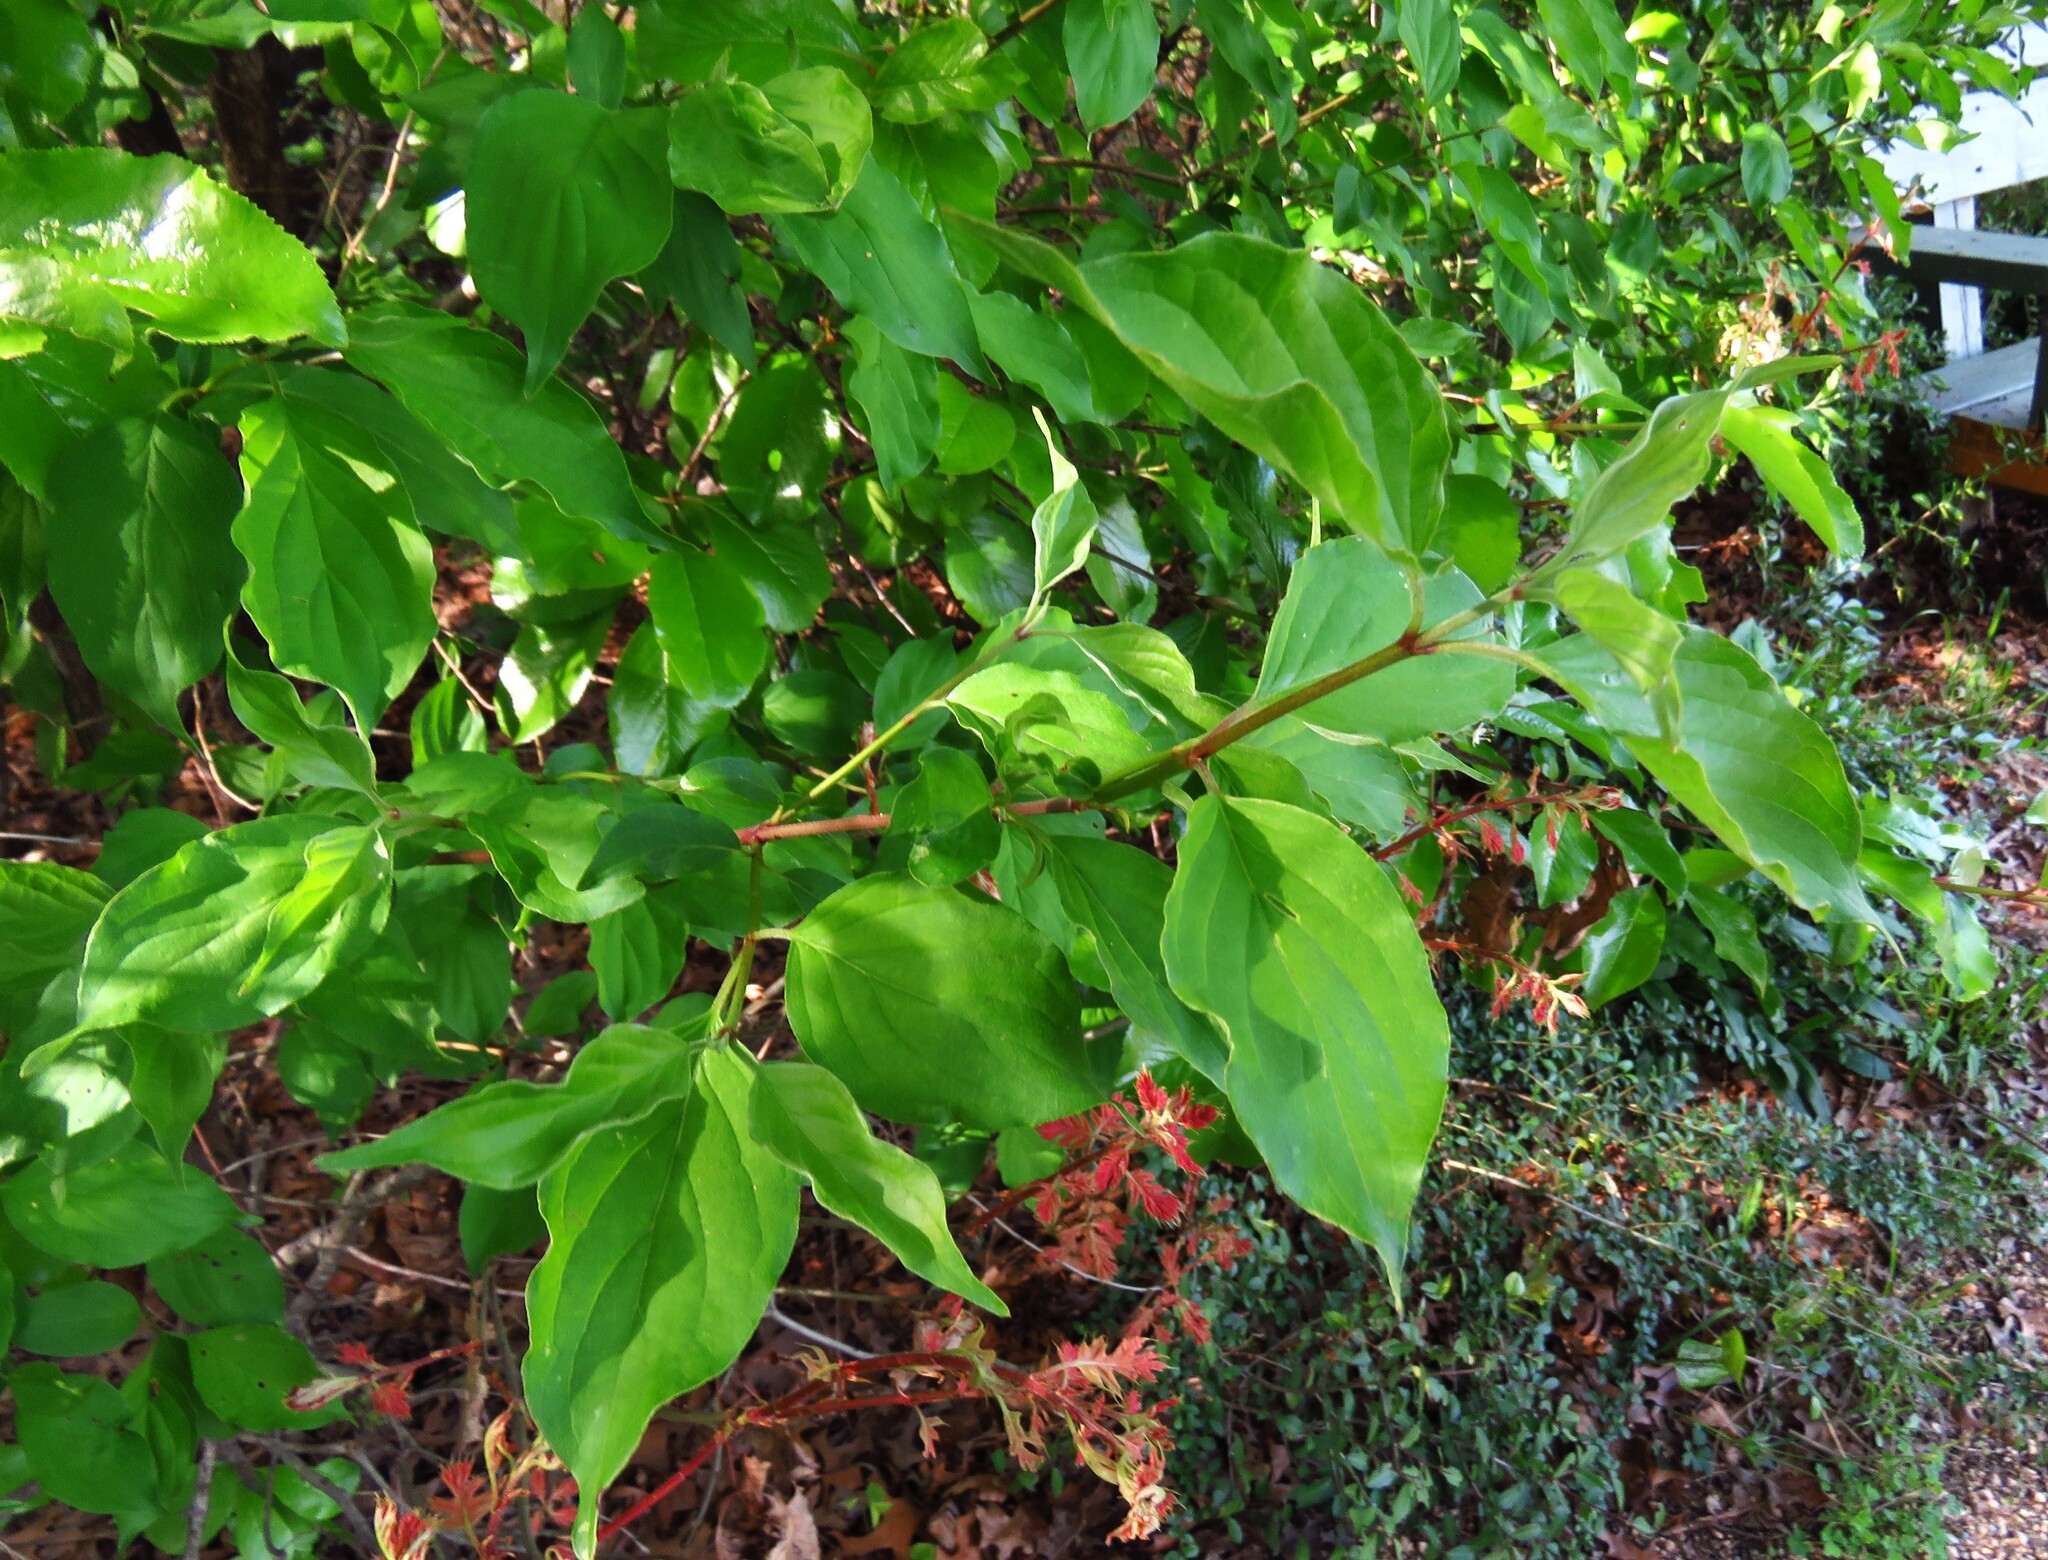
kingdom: Plantae
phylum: Tracheophyta
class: Magnoliopsida
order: Cornales
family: Cornaceae
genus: Cornus
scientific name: Cornus drummondii
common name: Rough-leaf dogwood
